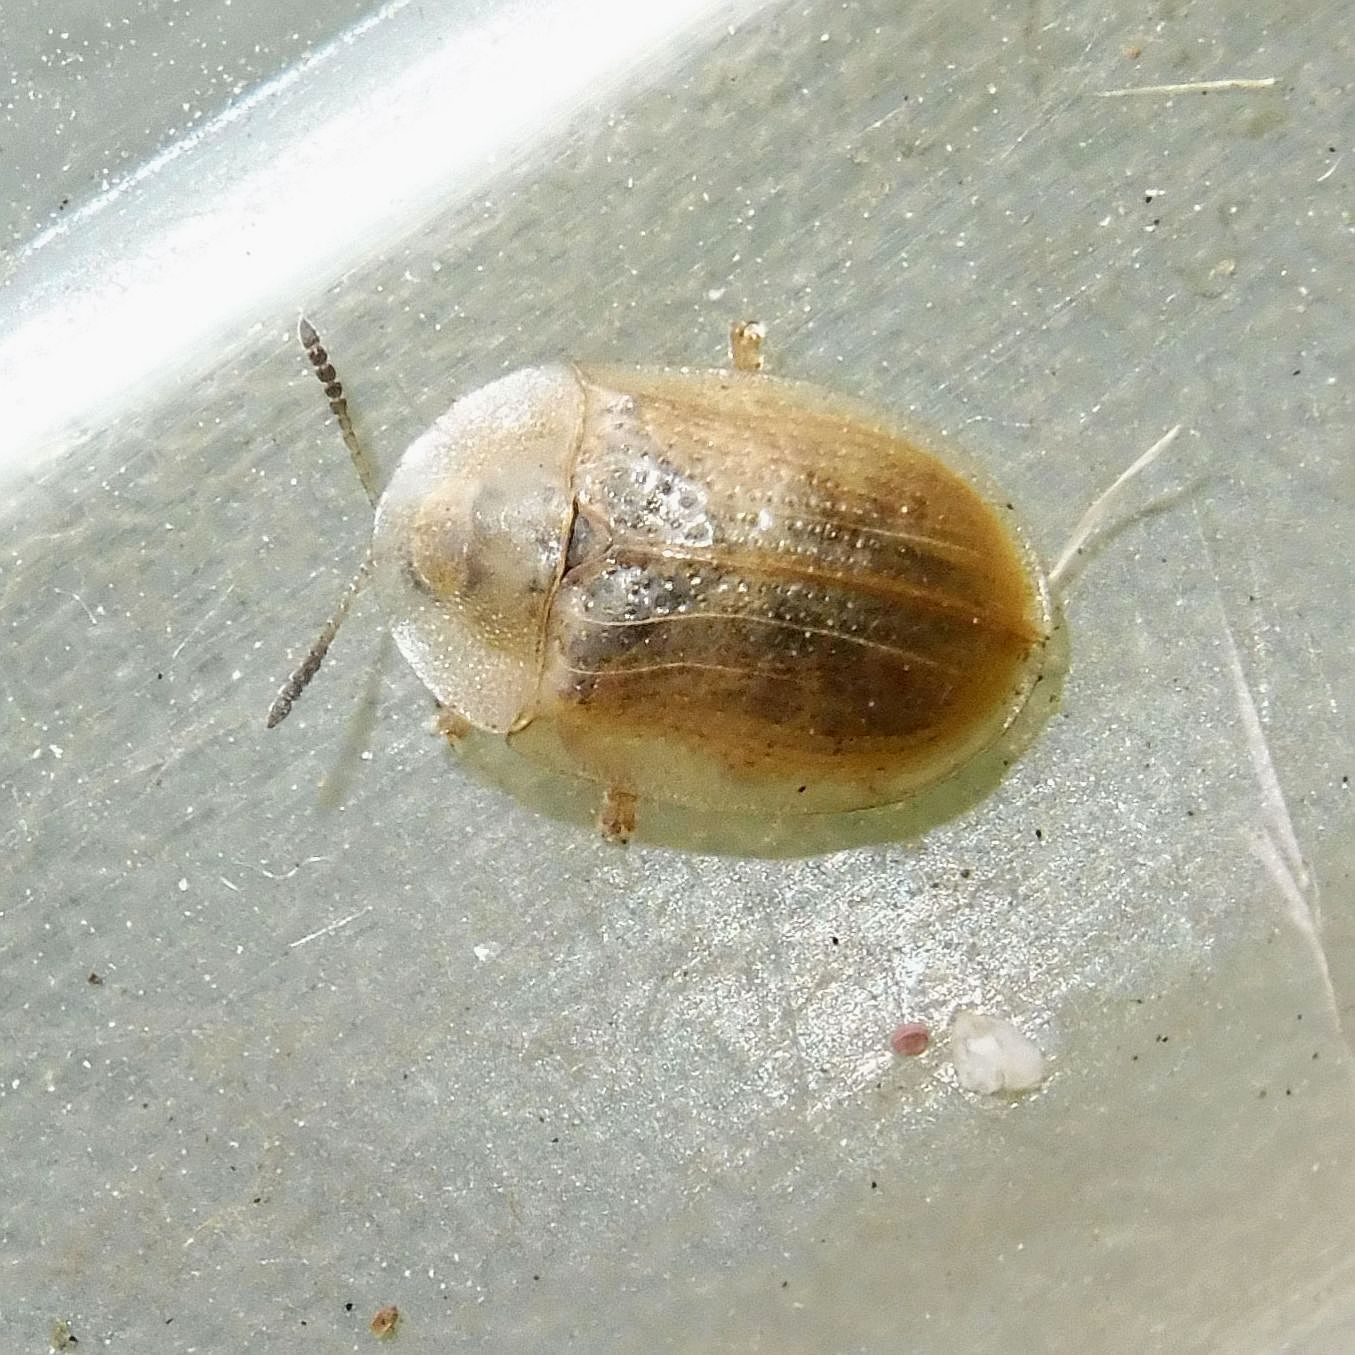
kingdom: Animalia
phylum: Arthropoda
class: Insecta
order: Coleoptera
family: Chrysomelidae
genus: Cassida
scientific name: Cassida flaveola
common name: Pale tortoise beetle
